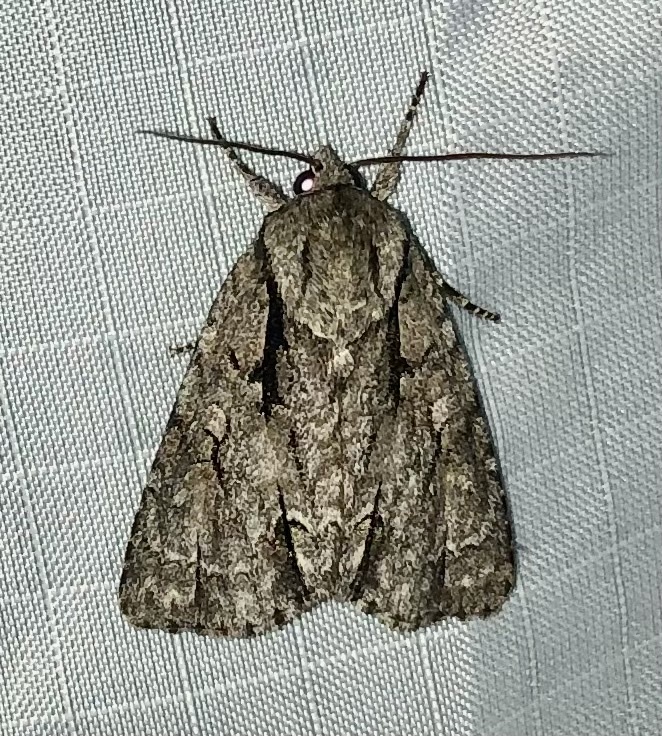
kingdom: Animalia
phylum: Arthropoda
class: Insecta
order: Lepidoptera
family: Noctuidae
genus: Acronicta
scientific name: Acronicta hasta
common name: Cherry dagger
